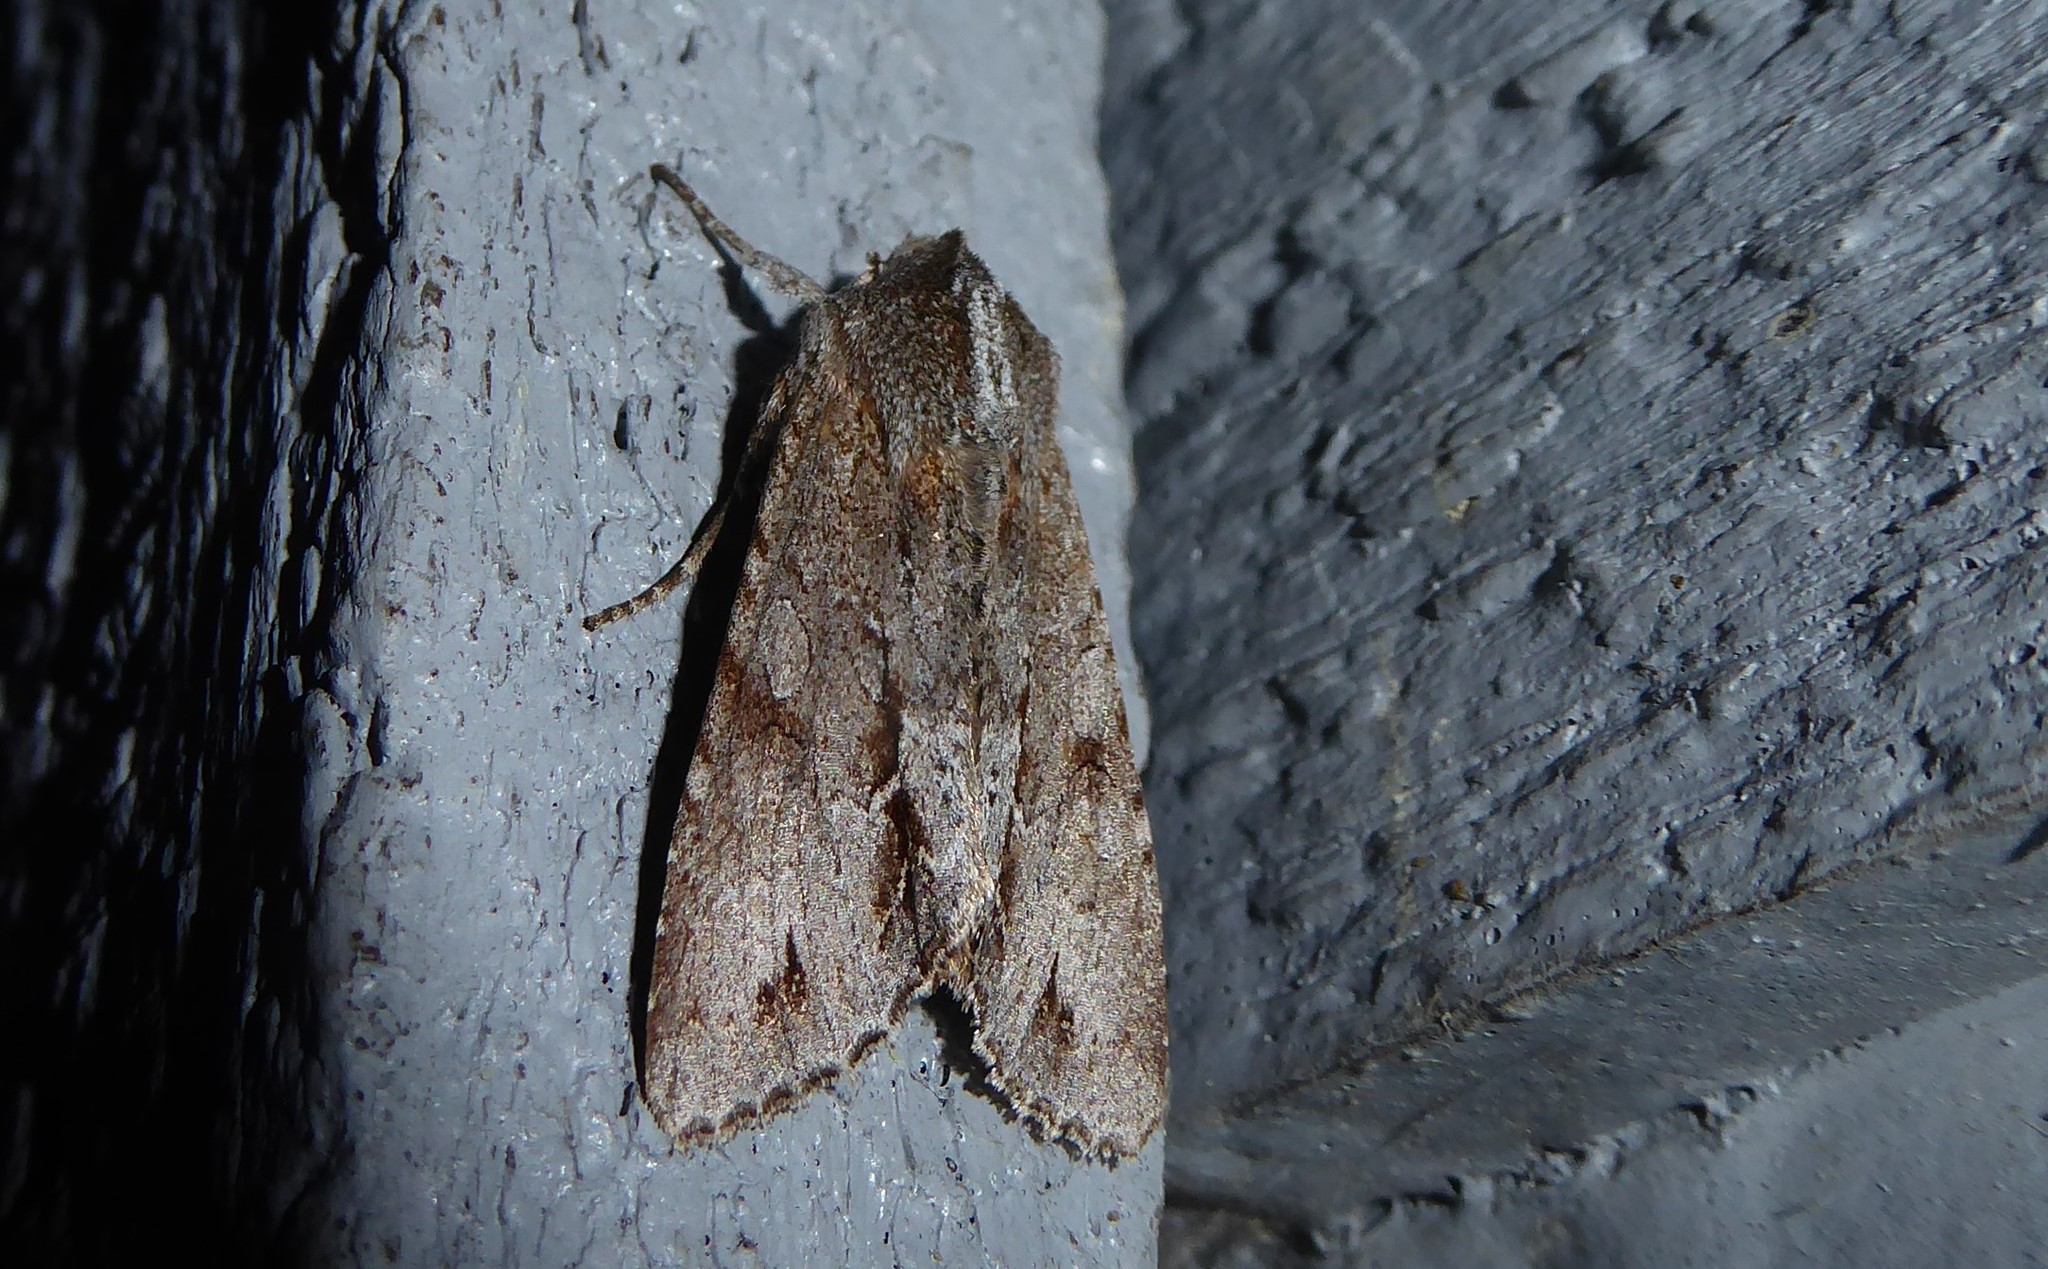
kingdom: Animalia
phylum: Arthropoda
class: Insecta
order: Lepidoptera
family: Noctuidae
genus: Ichneutica
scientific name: Ichneutica
